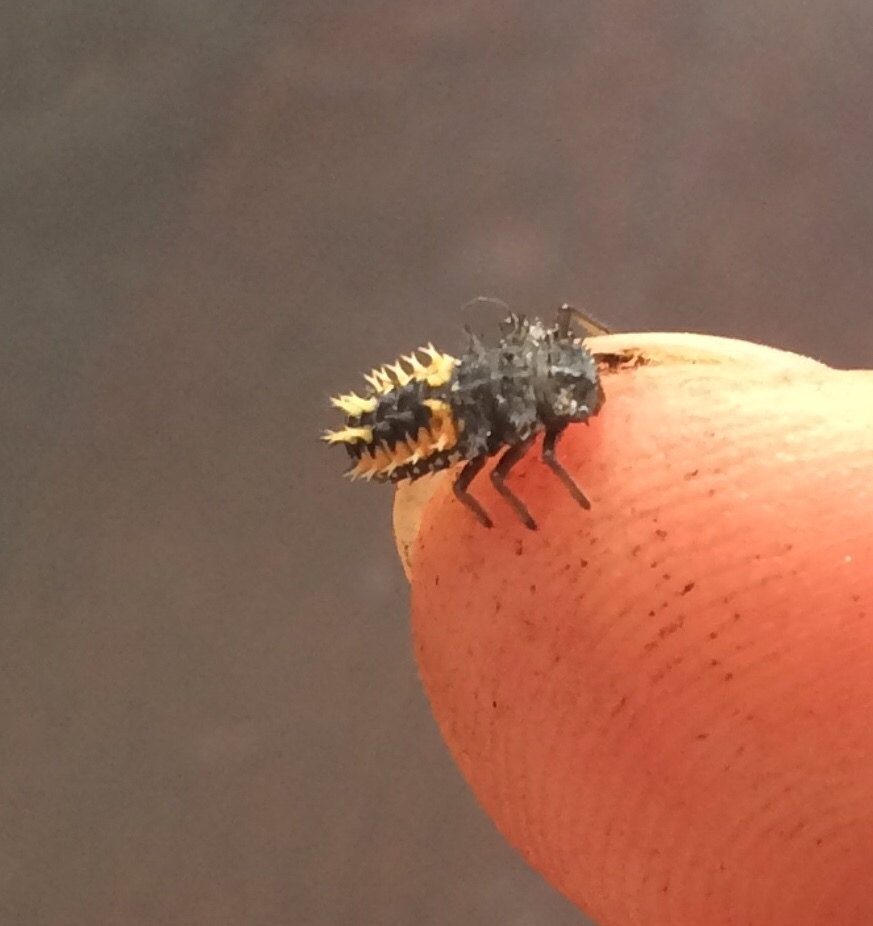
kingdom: Animalia
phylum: Arthropoda
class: Insecta
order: Coleoptera
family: Coccinellidae
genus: Harmonia
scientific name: Harmonia axyridis
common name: Harlequin ladybird
